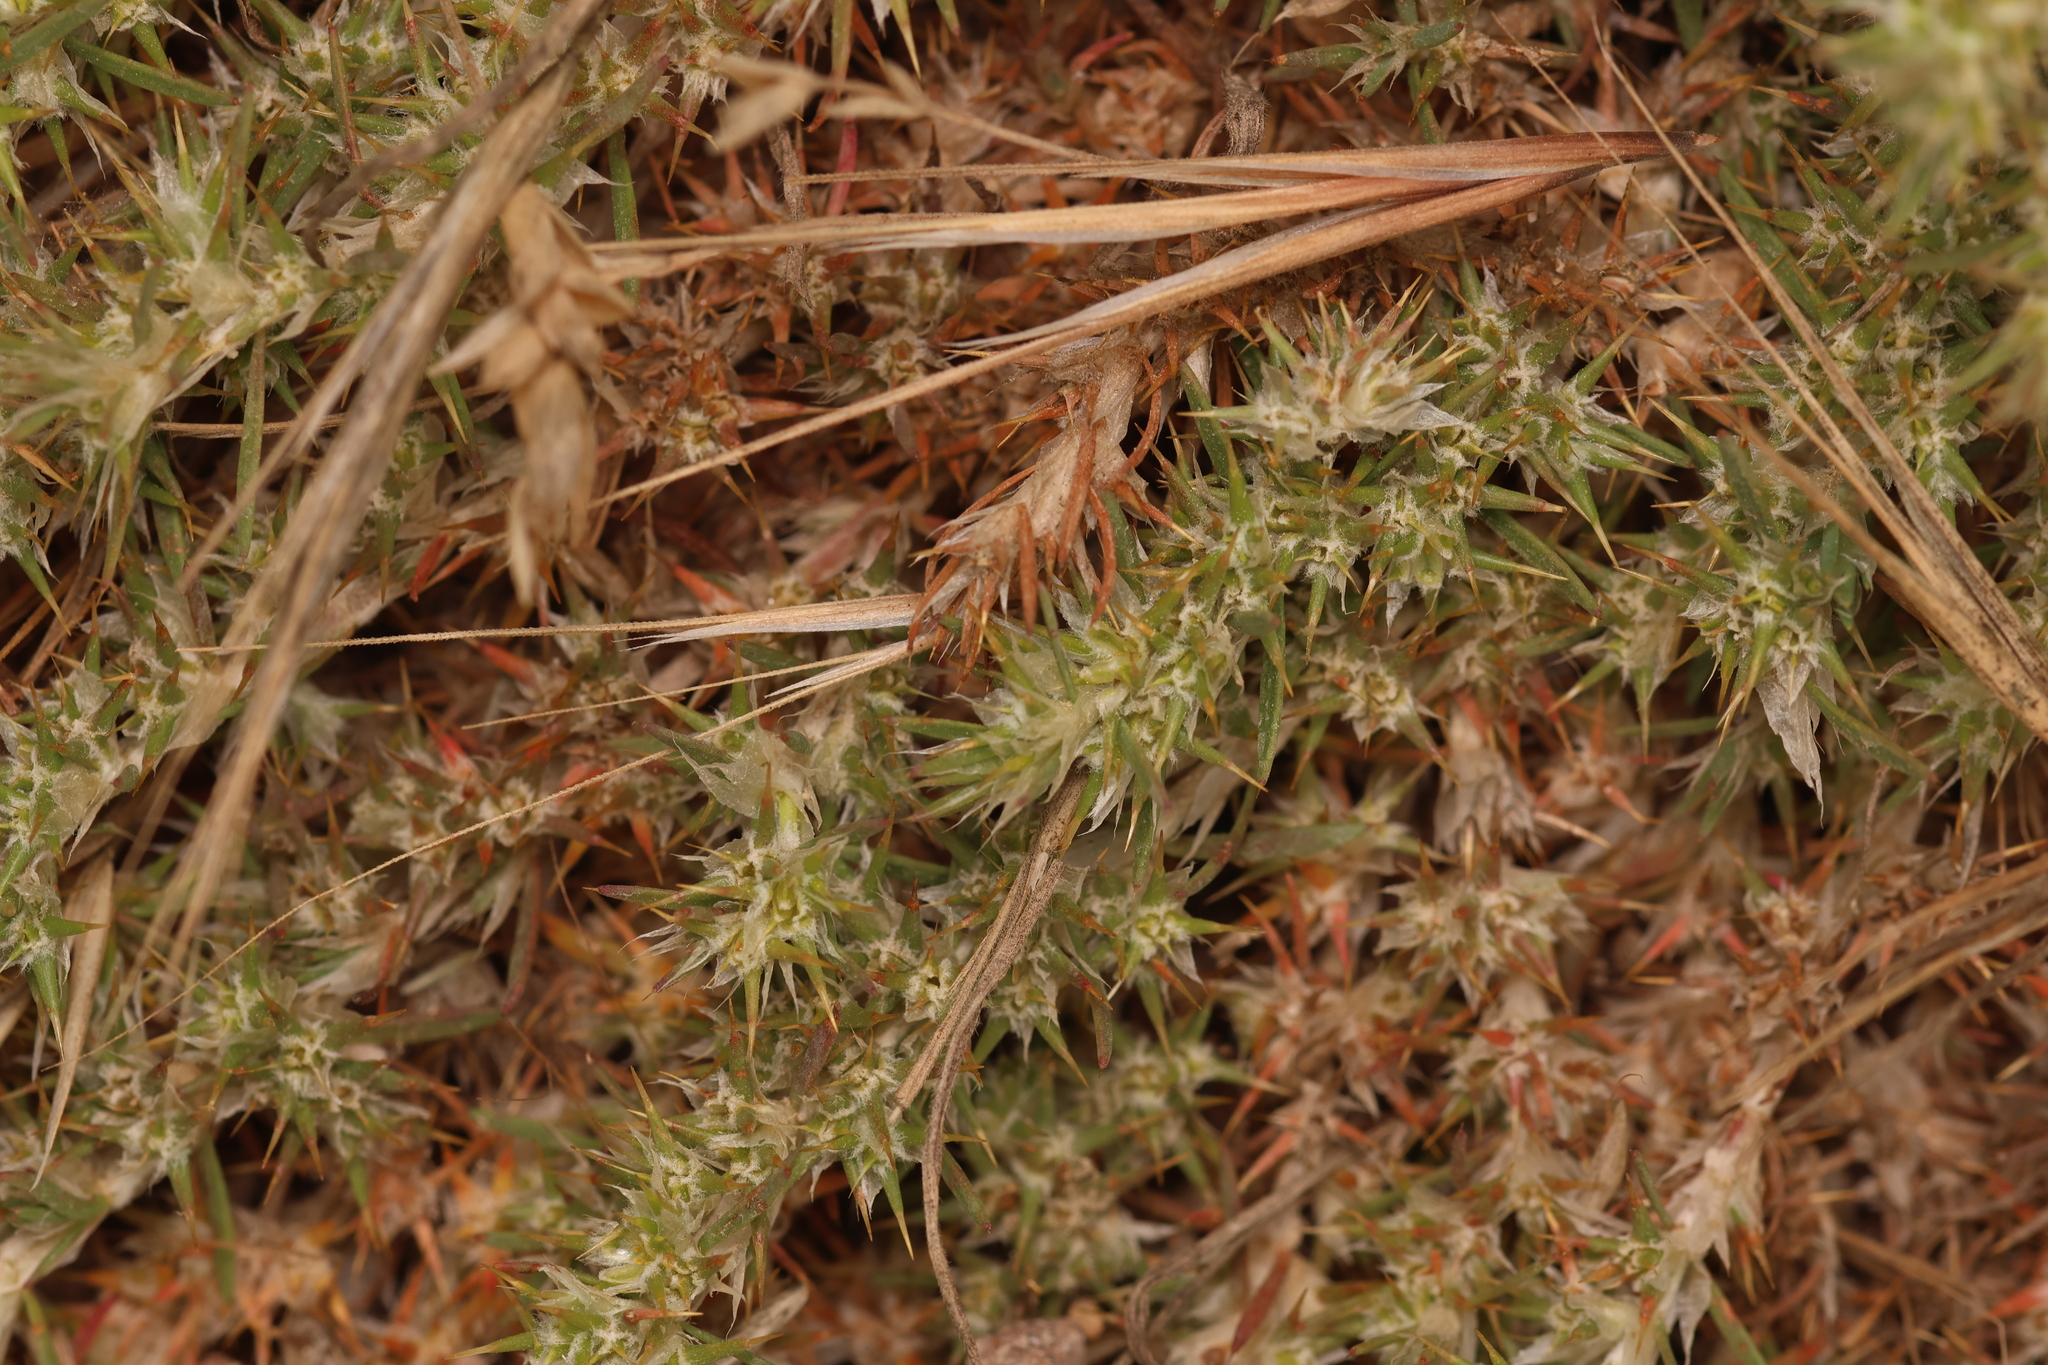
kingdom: Plantae
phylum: Tracheophyta
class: Magnoliopsida
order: Caryophyllales
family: Caryophyllaceae
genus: Cardionema
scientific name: Cardionema ramosissima
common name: Sandcarpet
